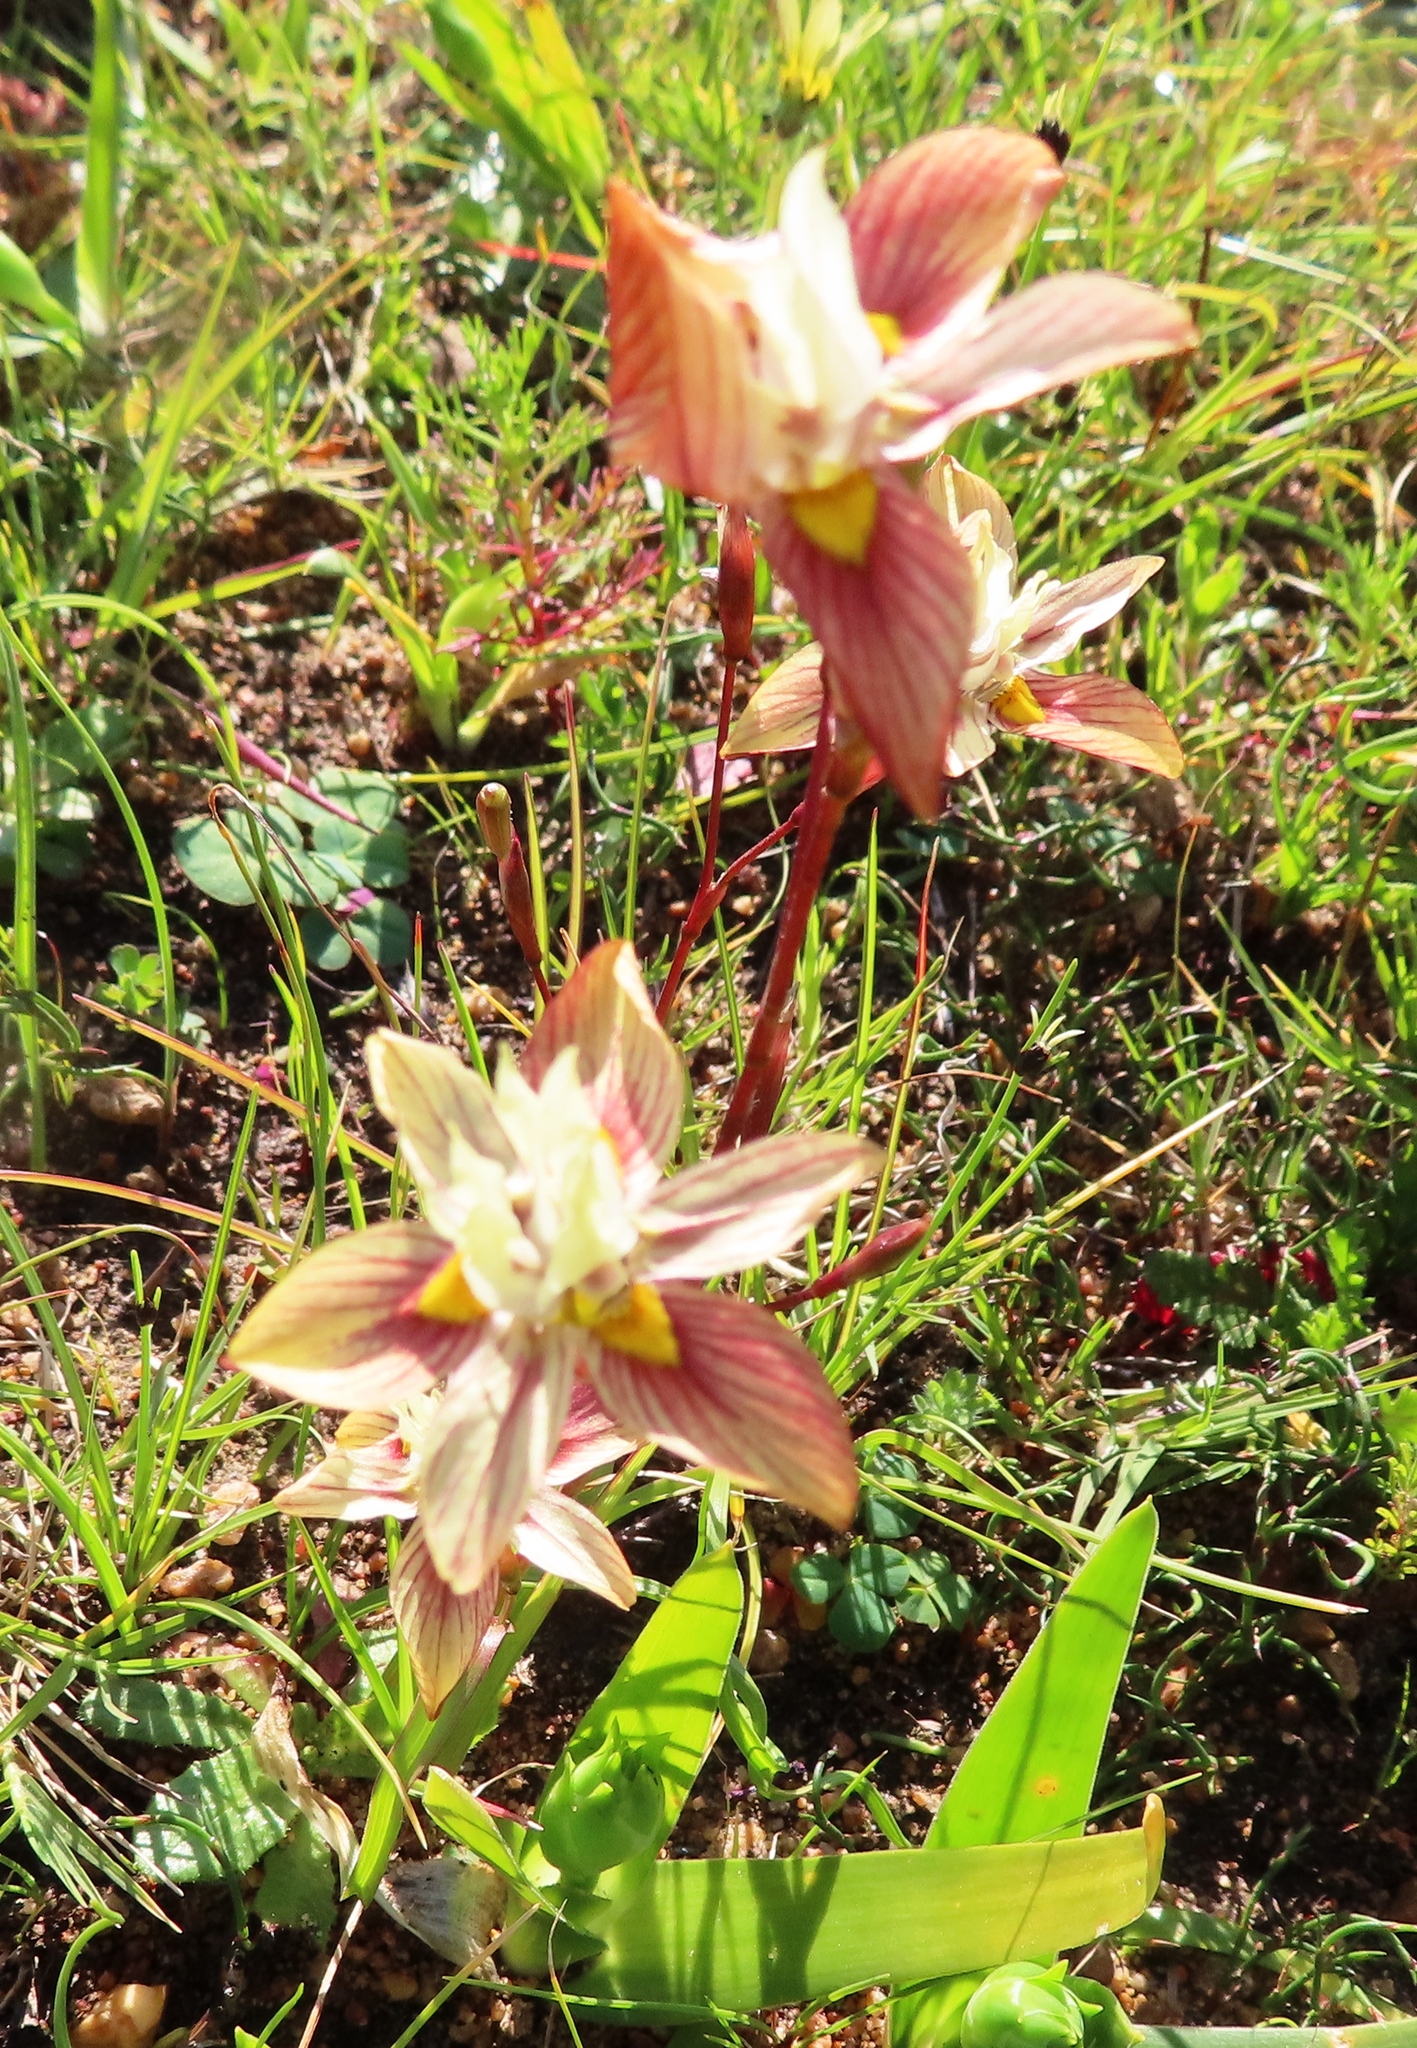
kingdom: Plantae
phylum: Tracheophyta
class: Liliopsida
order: Asparagales
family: Iridaceae
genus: Moraea
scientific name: Moraea gawleri
